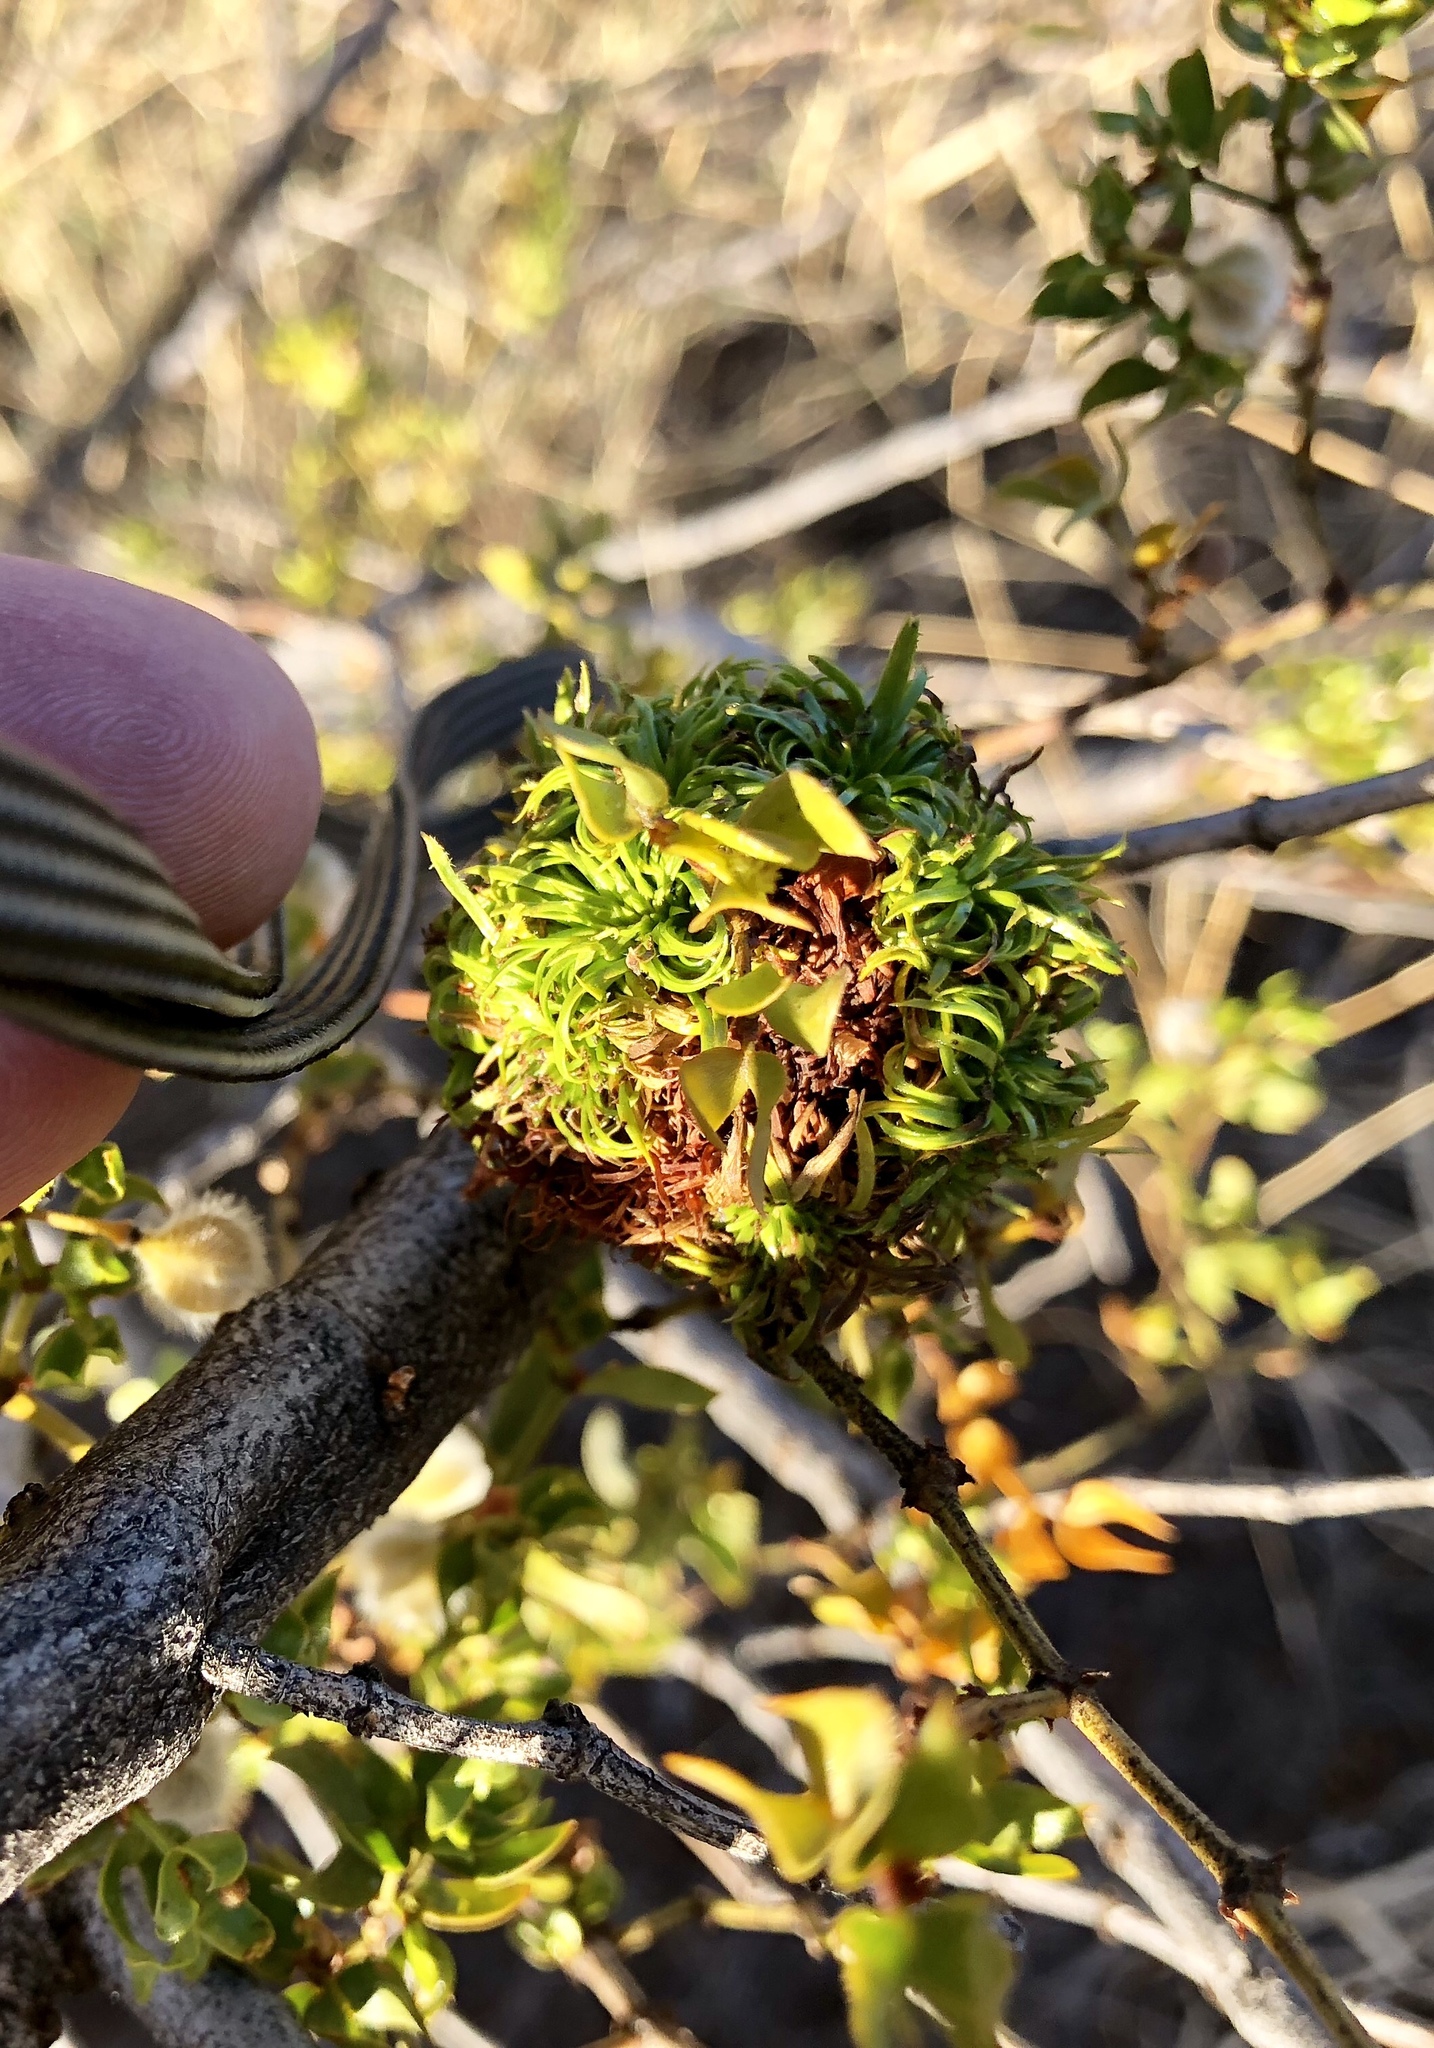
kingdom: Animalia
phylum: Arthropoda
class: Insecta
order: Diptera
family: Cecidomyiidae
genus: Asphondylia
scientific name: Asphondylia auripila
